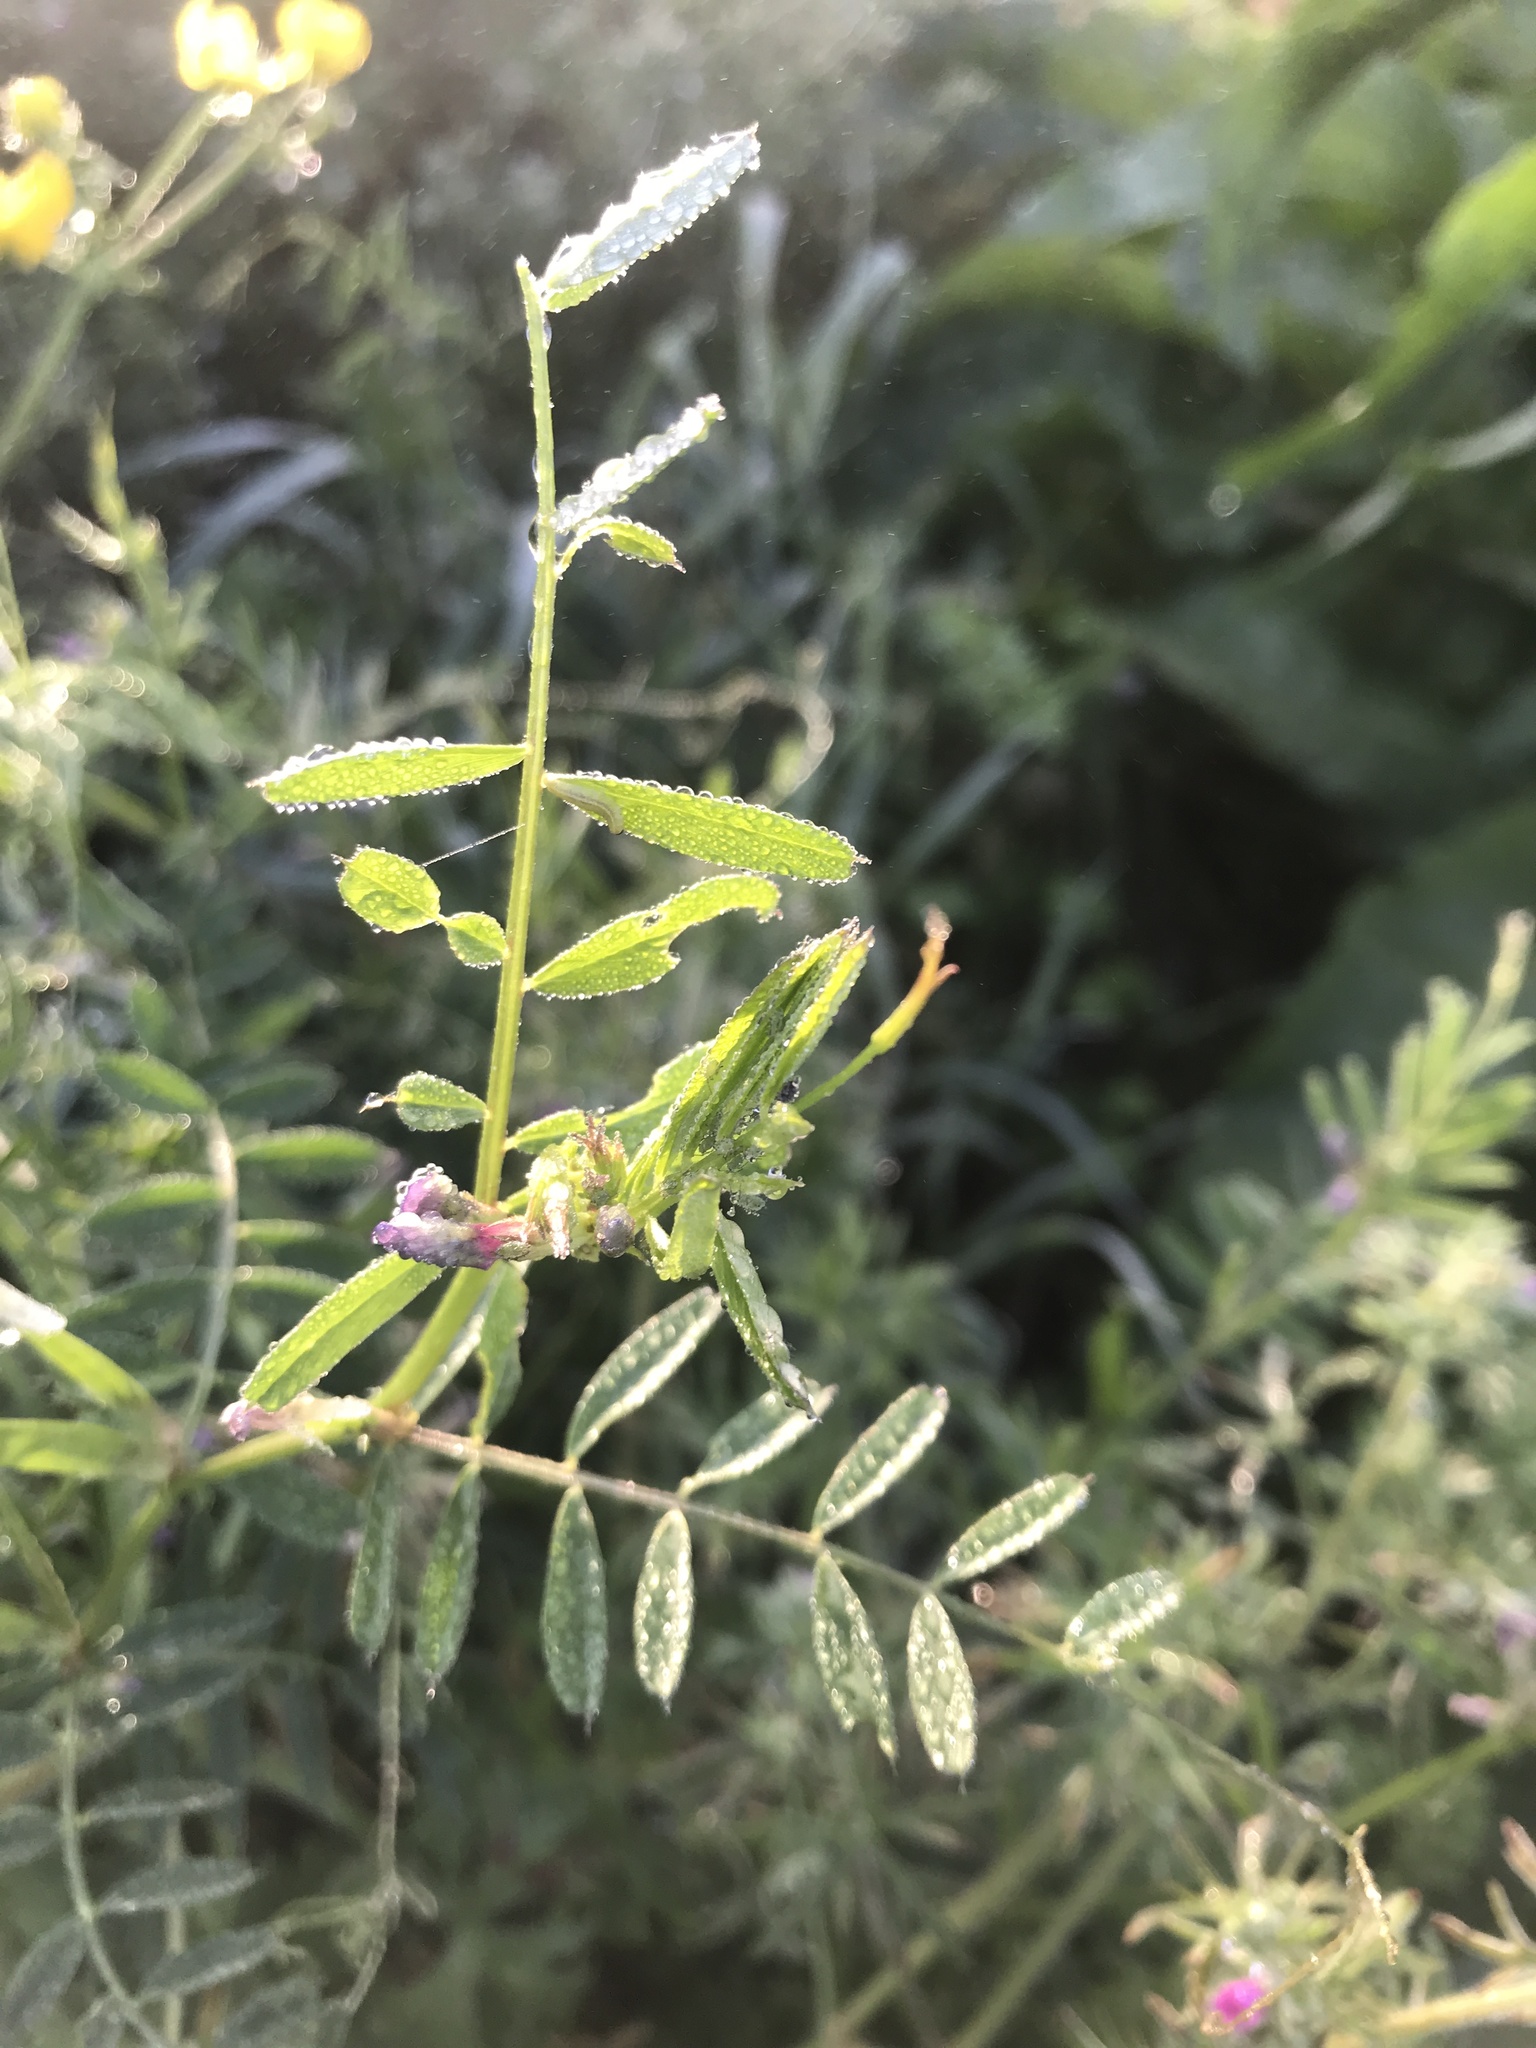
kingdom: Plantae
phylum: Tracheophyta
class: Magnoliopsida
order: Fabales
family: Fabaceae
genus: Vicia
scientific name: Vicia sativa
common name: Garden vetch
